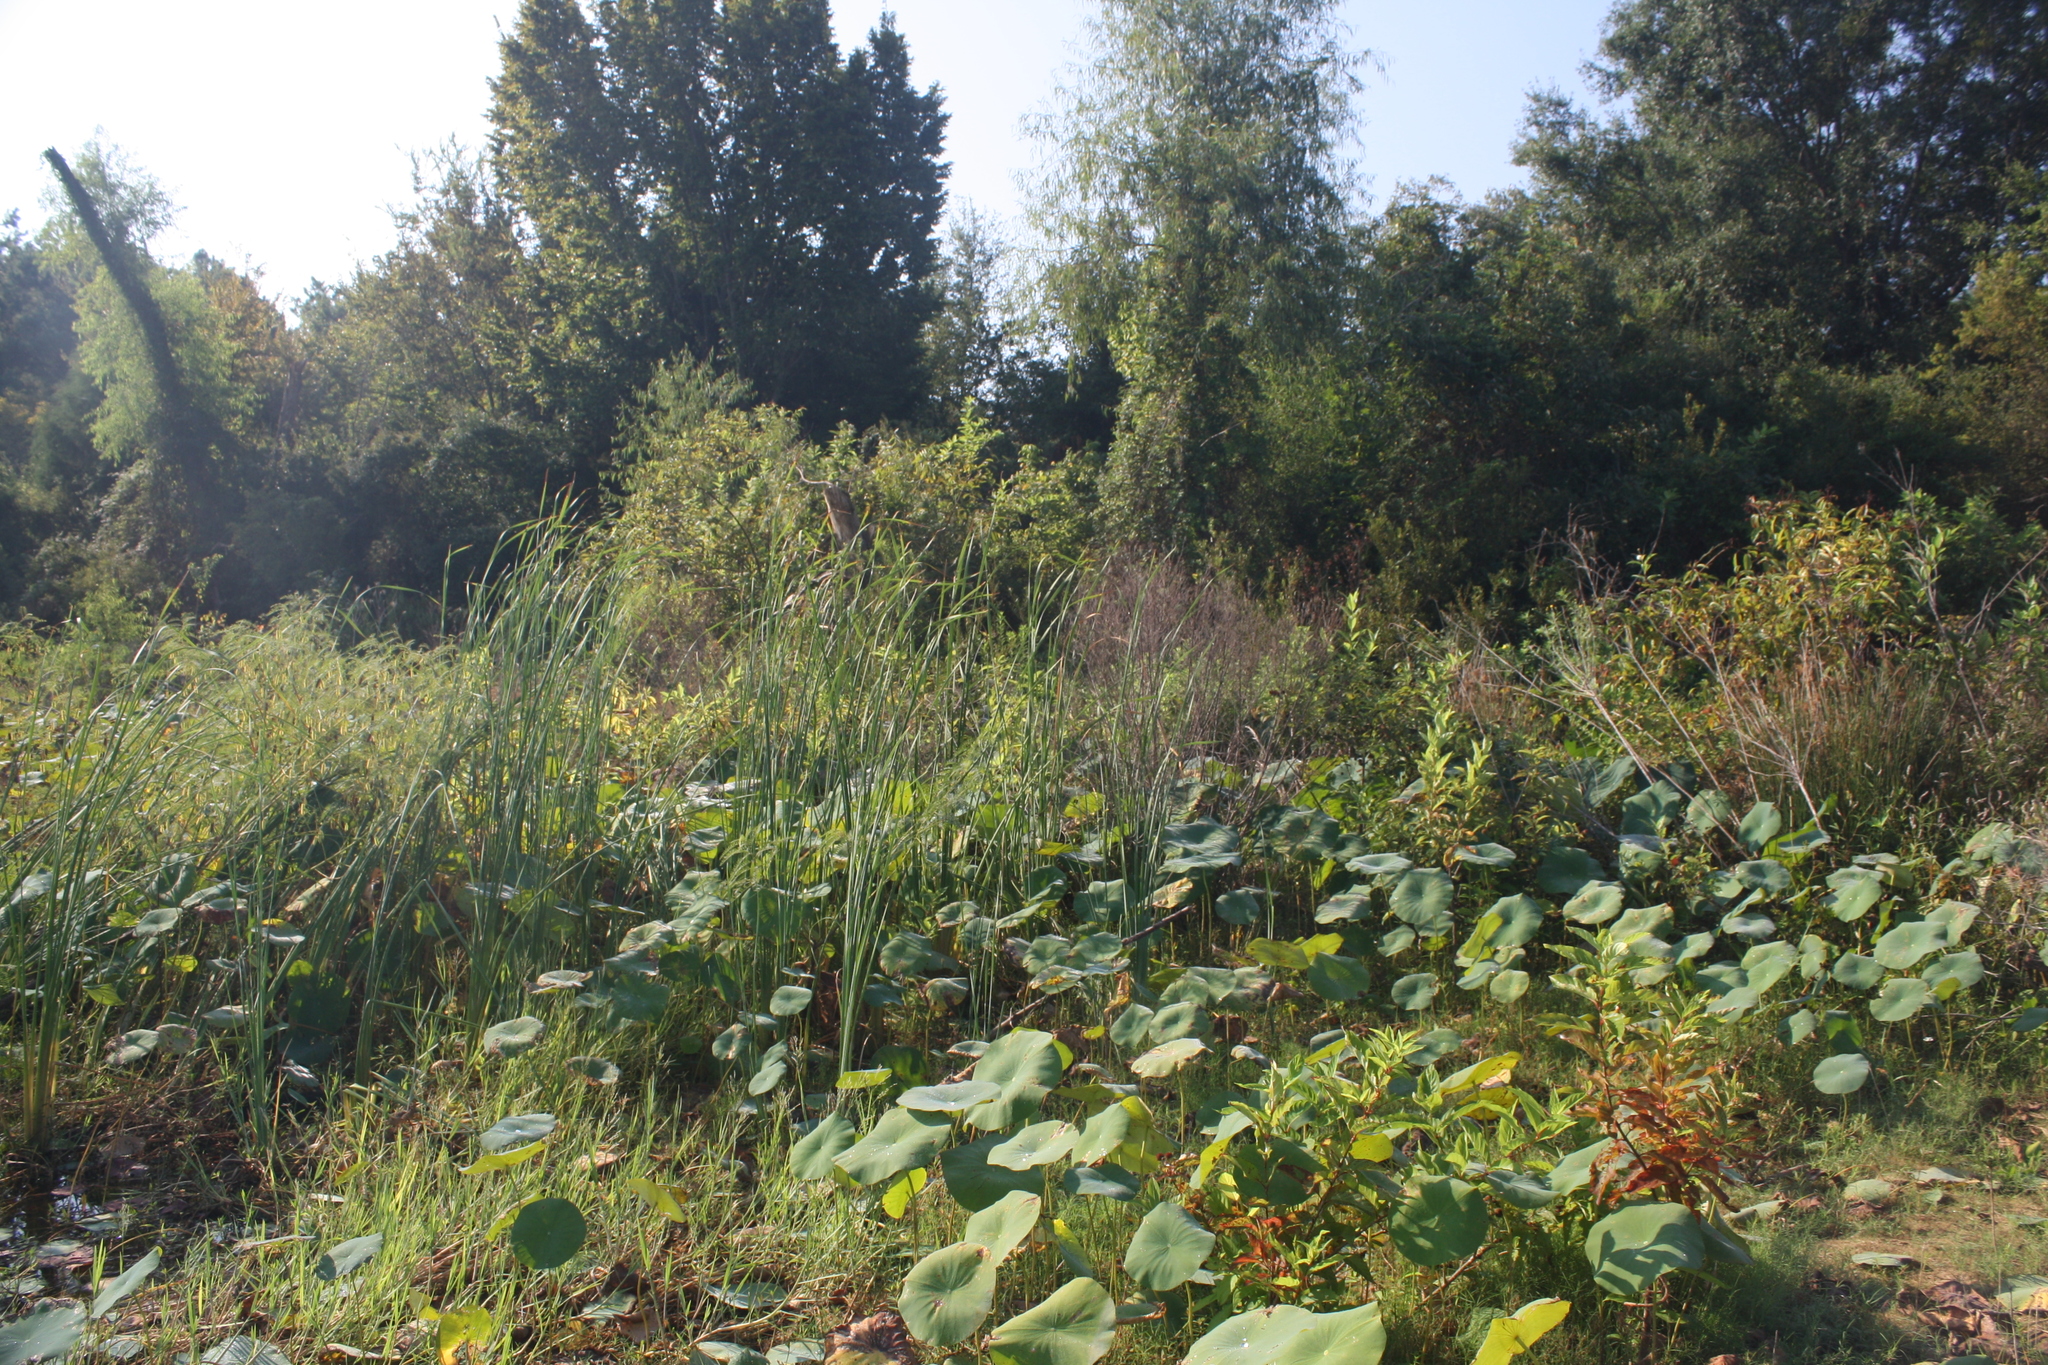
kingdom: Plantae
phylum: Tracheophyta
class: Magnoliopsida
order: Proteales
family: Nelumbonaceae
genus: Nelumbo
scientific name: Nelumbo lutea
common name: American lotus
